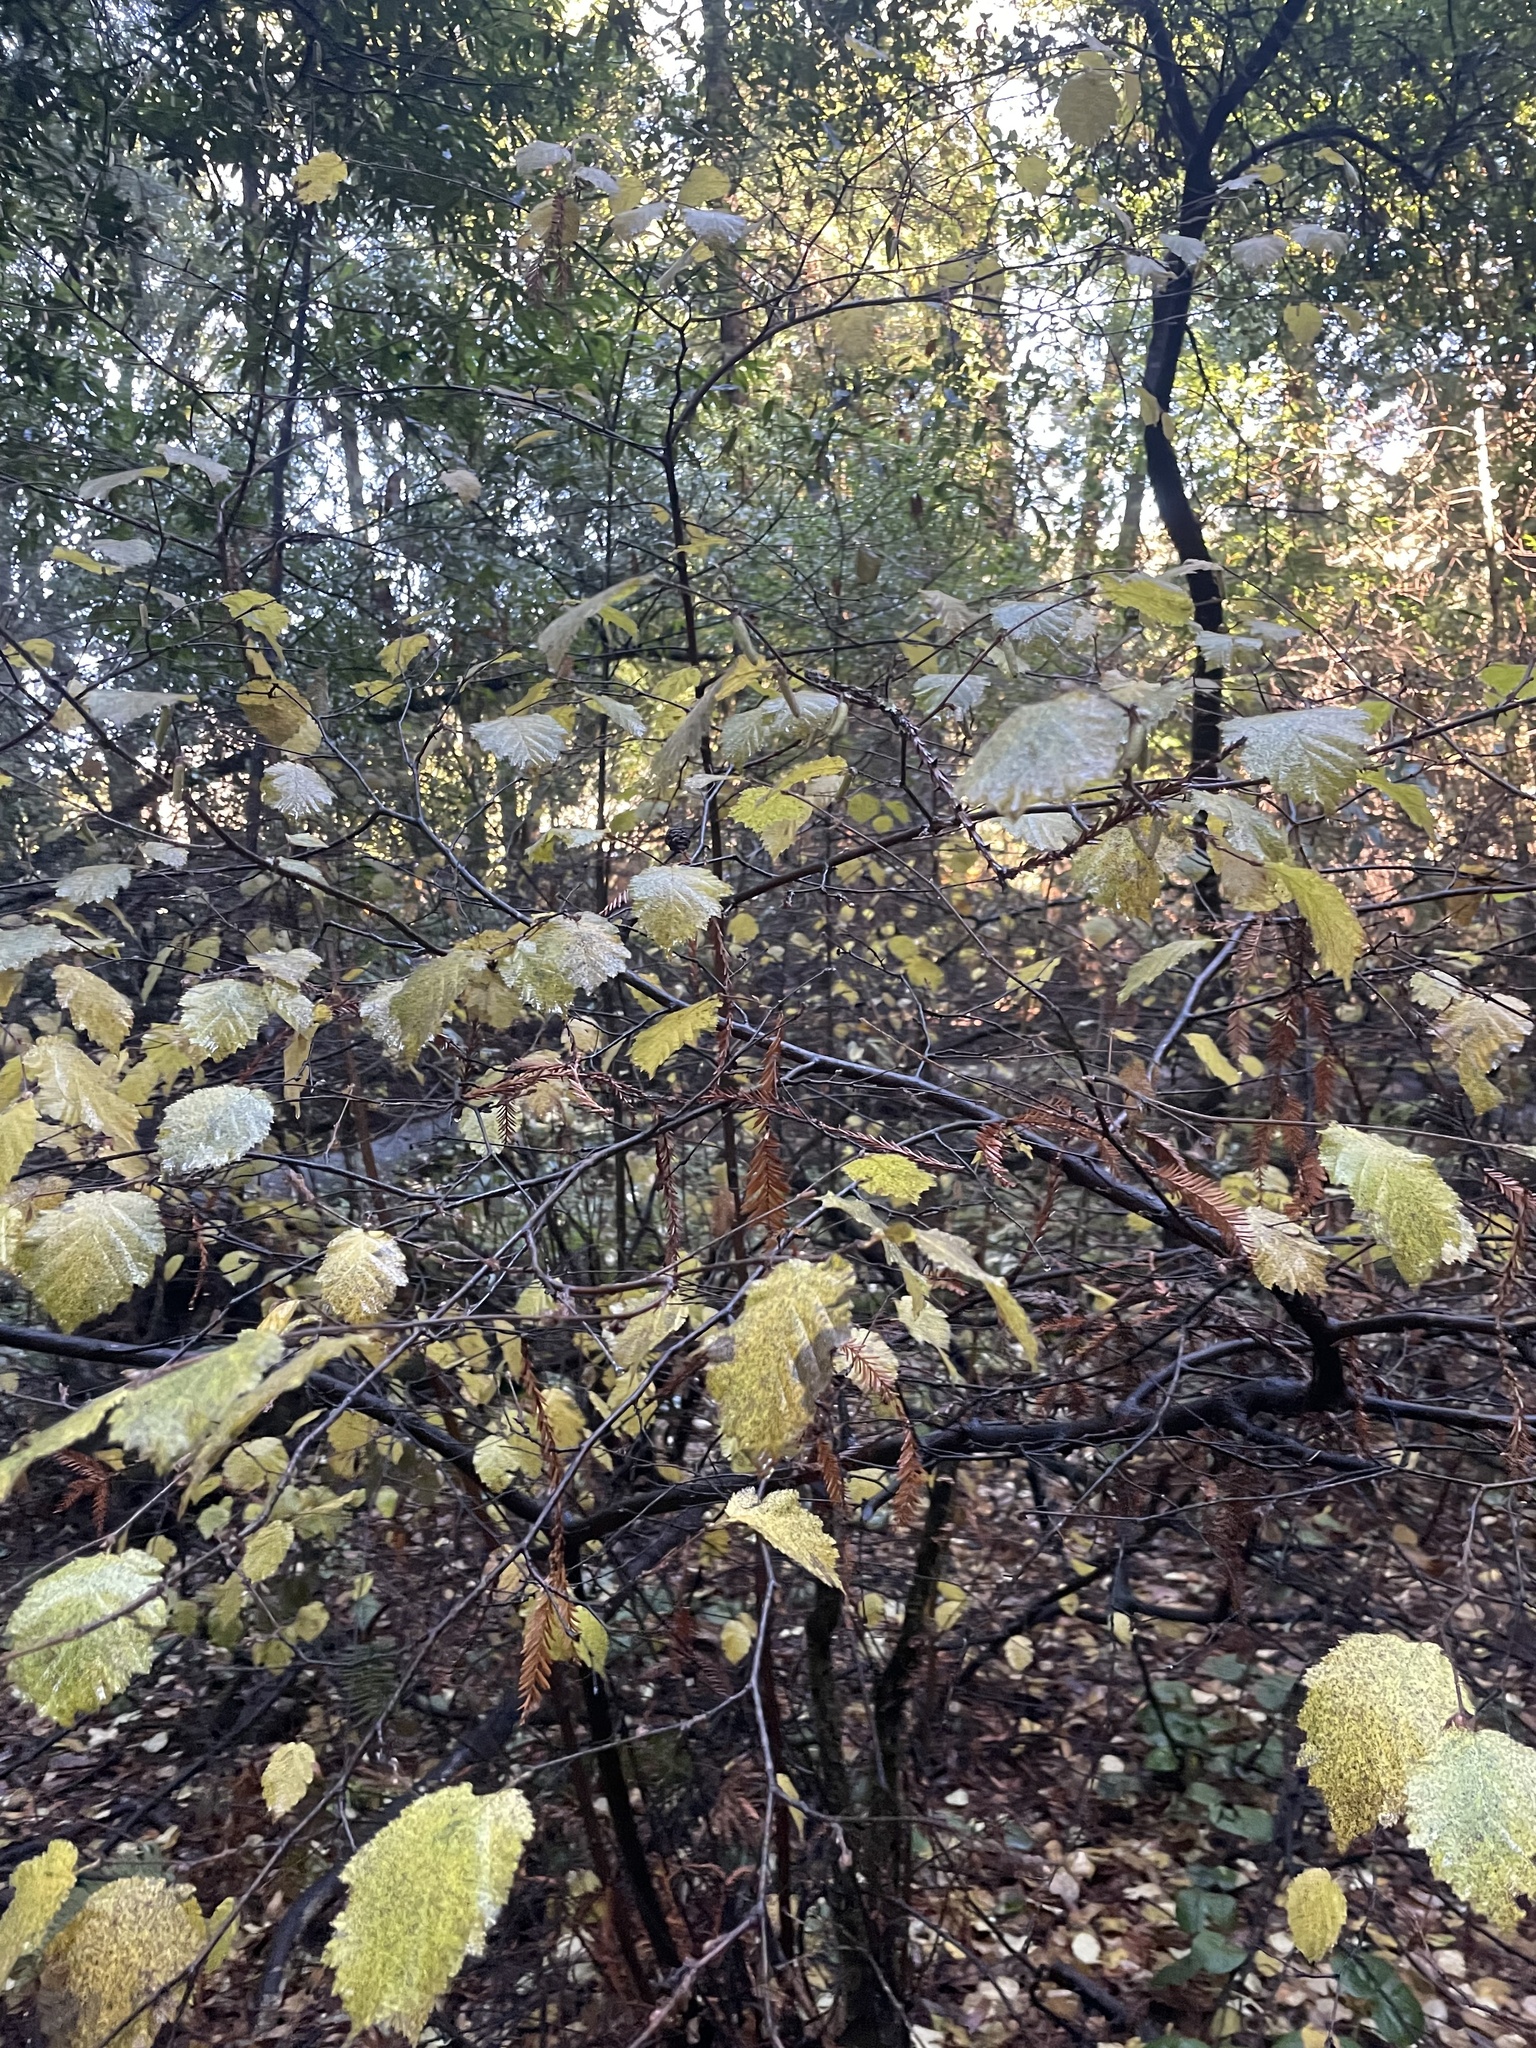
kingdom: Plantae
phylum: Tracheophyta
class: Magnoliopsida
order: Fagales
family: Betulaceae
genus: Corylus
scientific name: Corylus cornuta
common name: Beaked hazel
